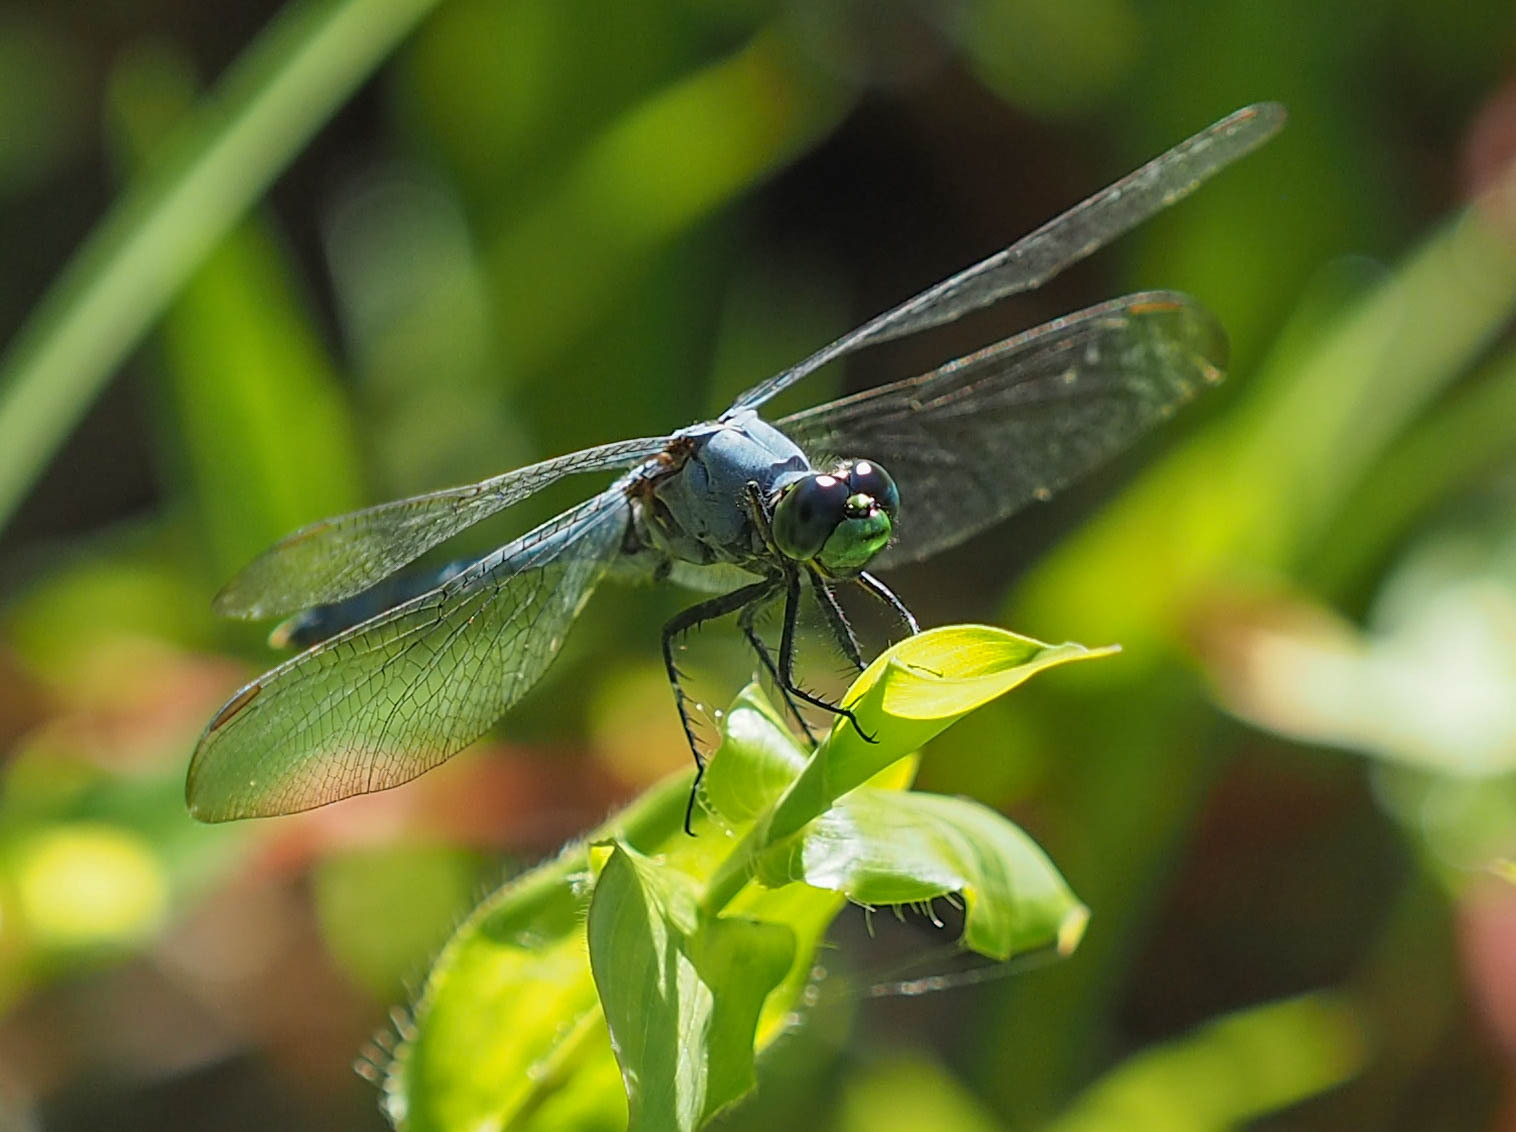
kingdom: Animalia
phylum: Arthropoda
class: Insecta
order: Odonata
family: Libellulidae
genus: Erythemis
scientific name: Erythemis simplicicollis
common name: Eastern pondhawk
